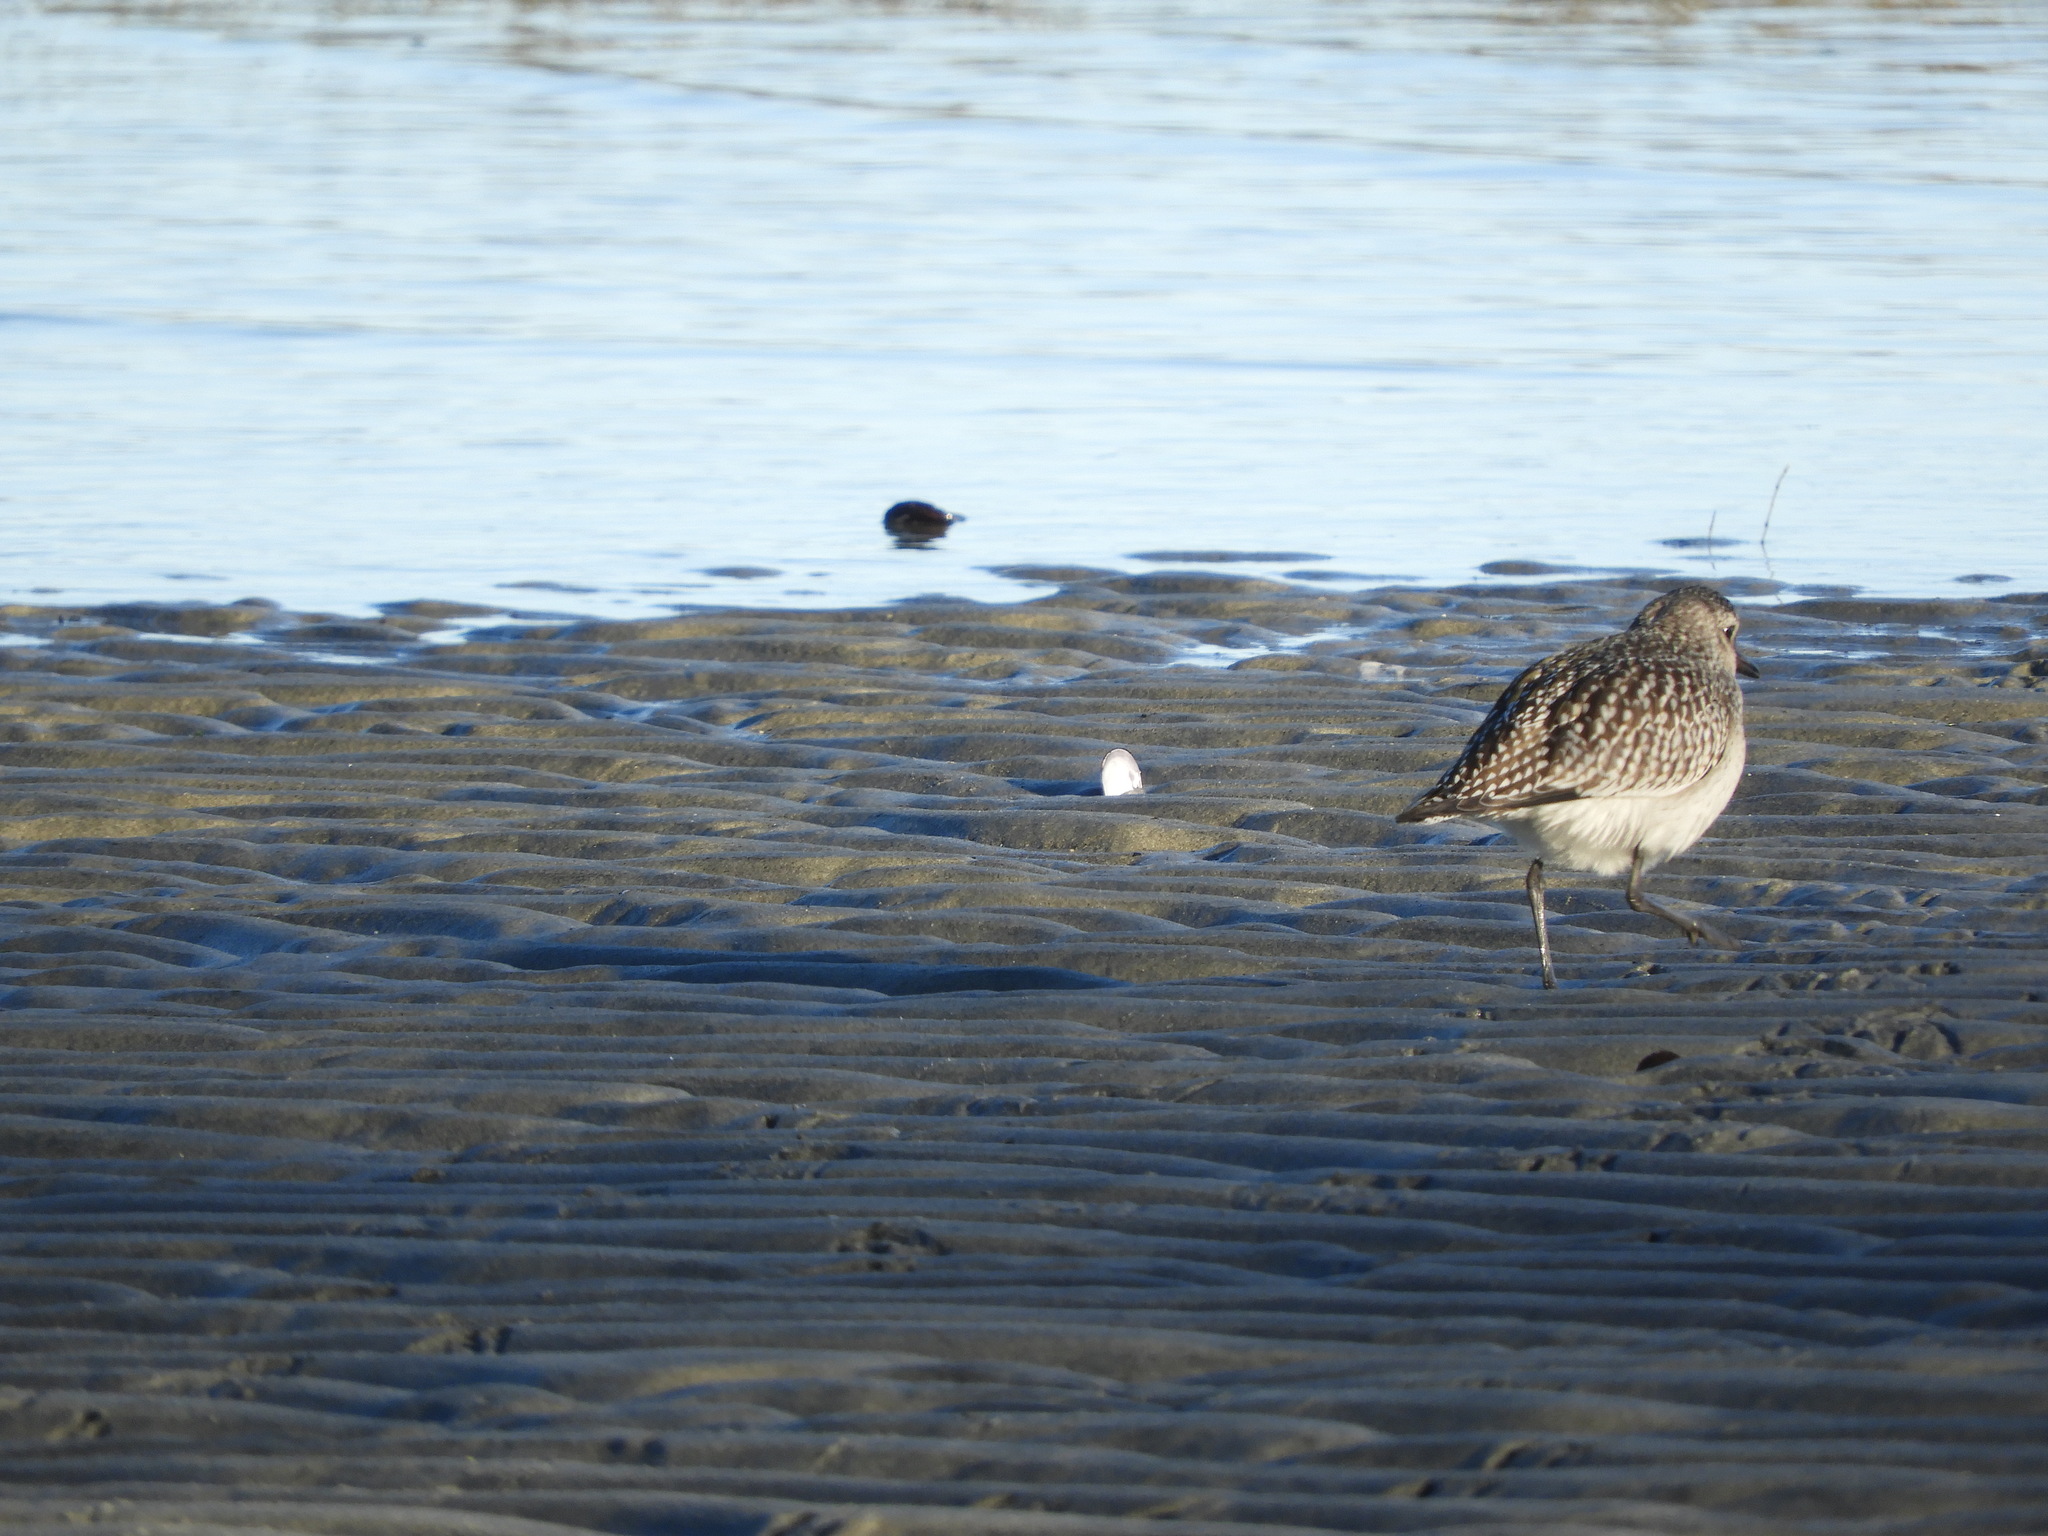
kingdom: Animalia
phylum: Chordata
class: Aves
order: Charadriiformes
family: Charadriidae
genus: Pluvialis
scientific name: Pluvialis squatarola
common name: Grey plover
